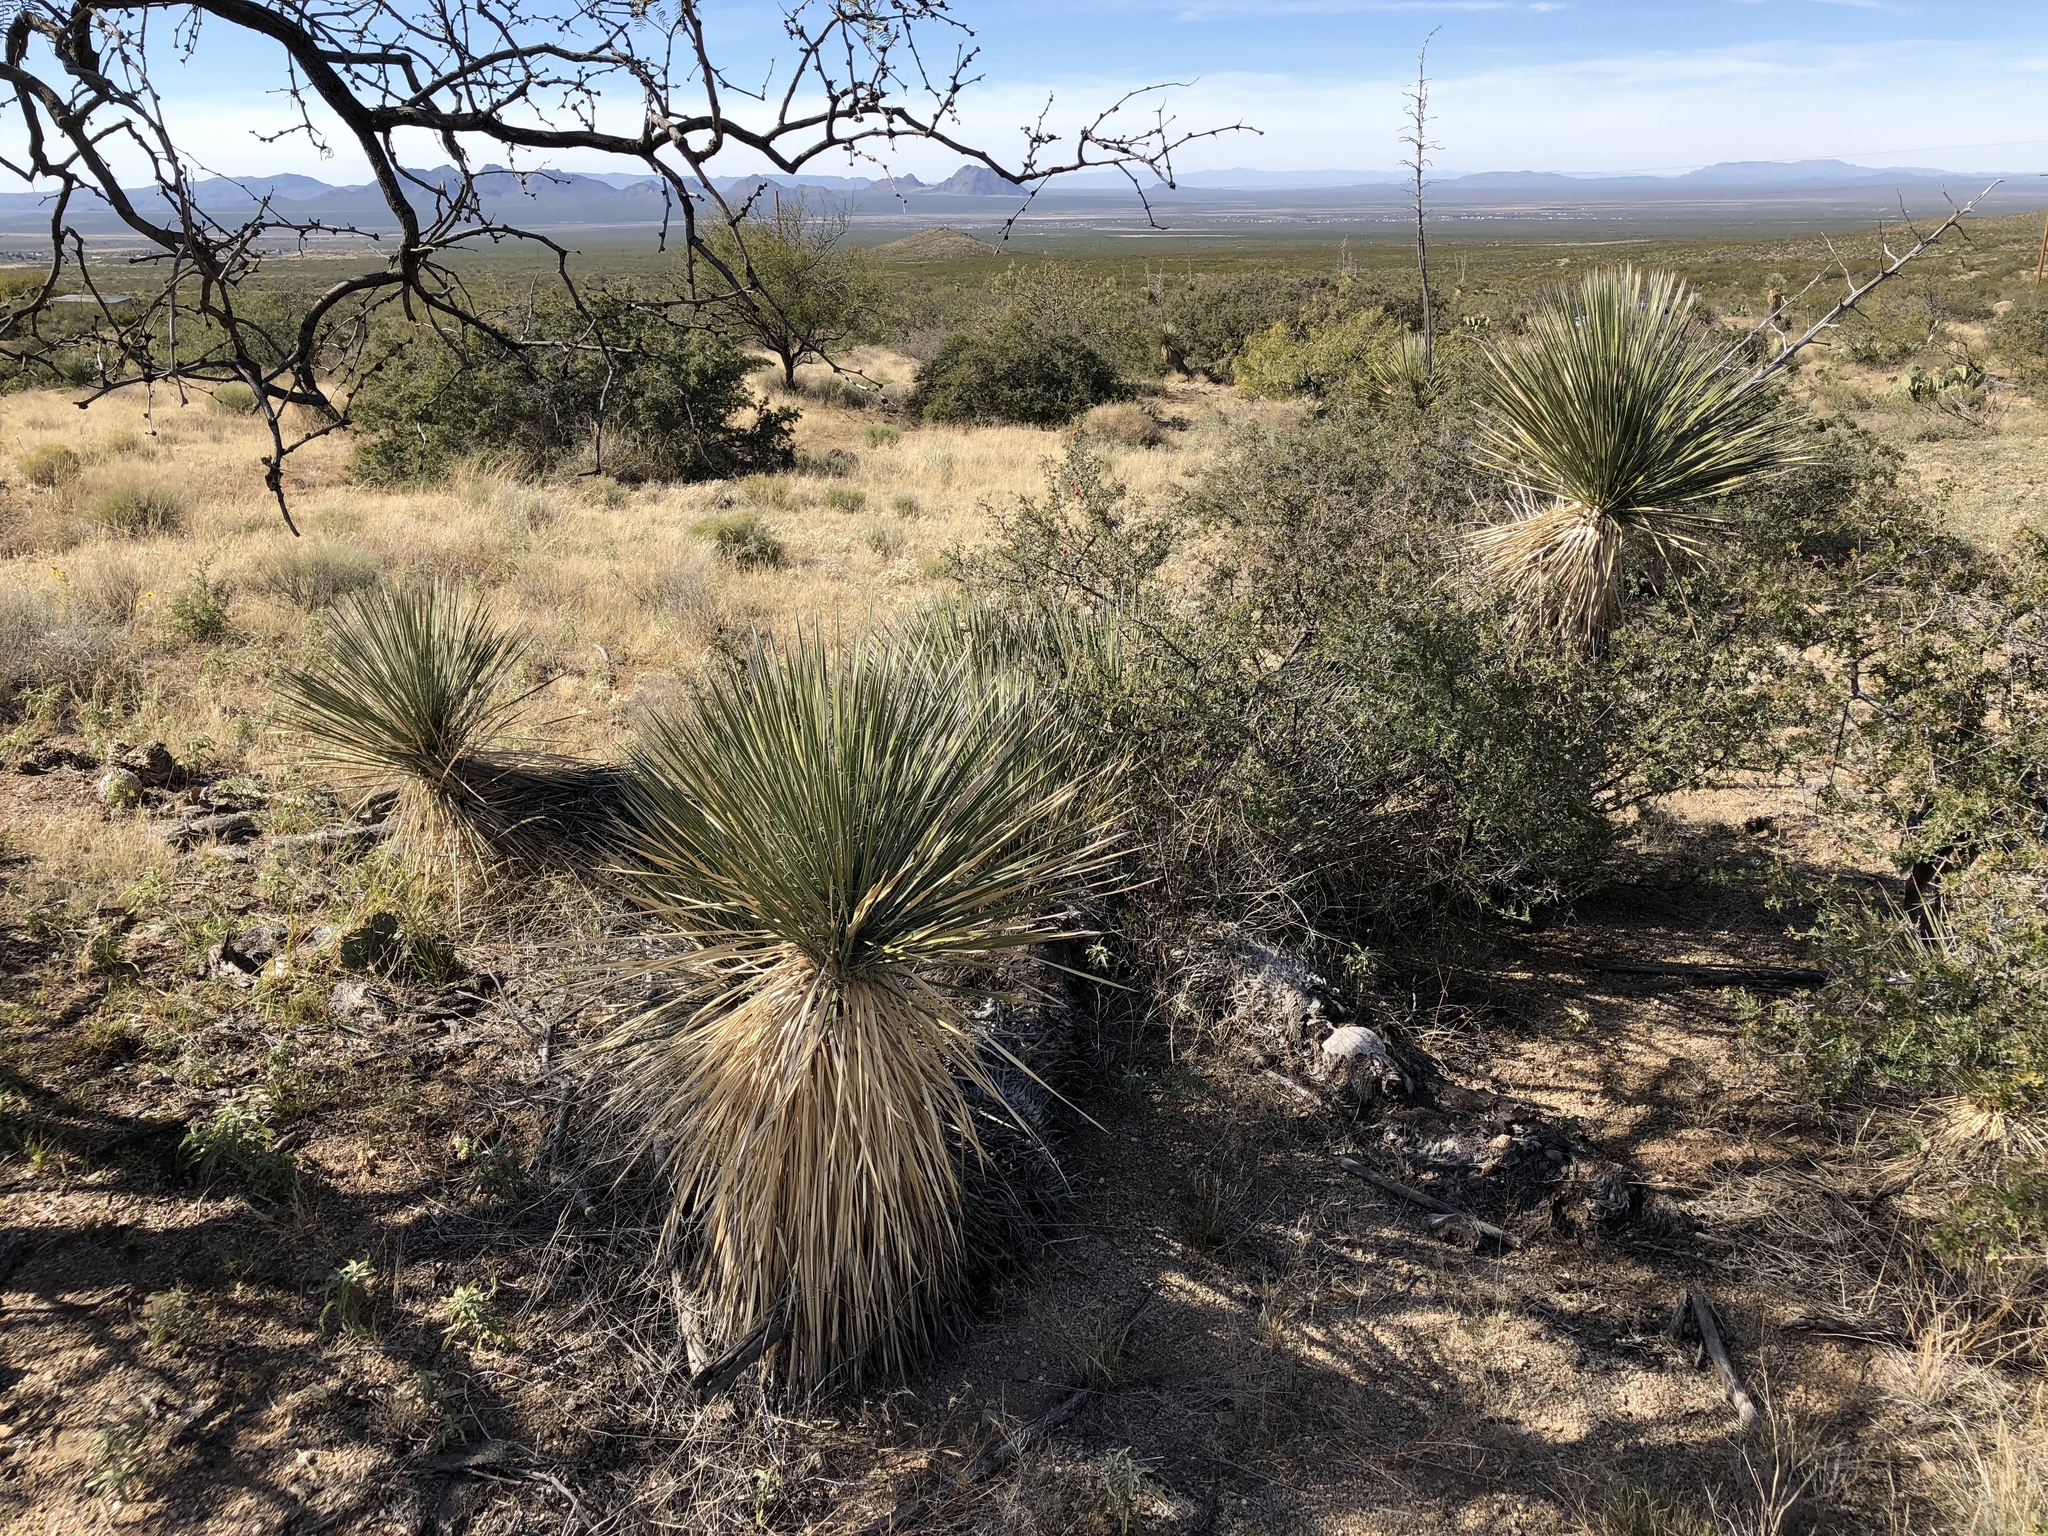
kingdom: Plantae
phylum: Tracheophyta
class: Liliopsida
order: Asparagales
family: Asparagaceae
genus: Yucca
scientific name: Yucca elata
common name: Palmella
